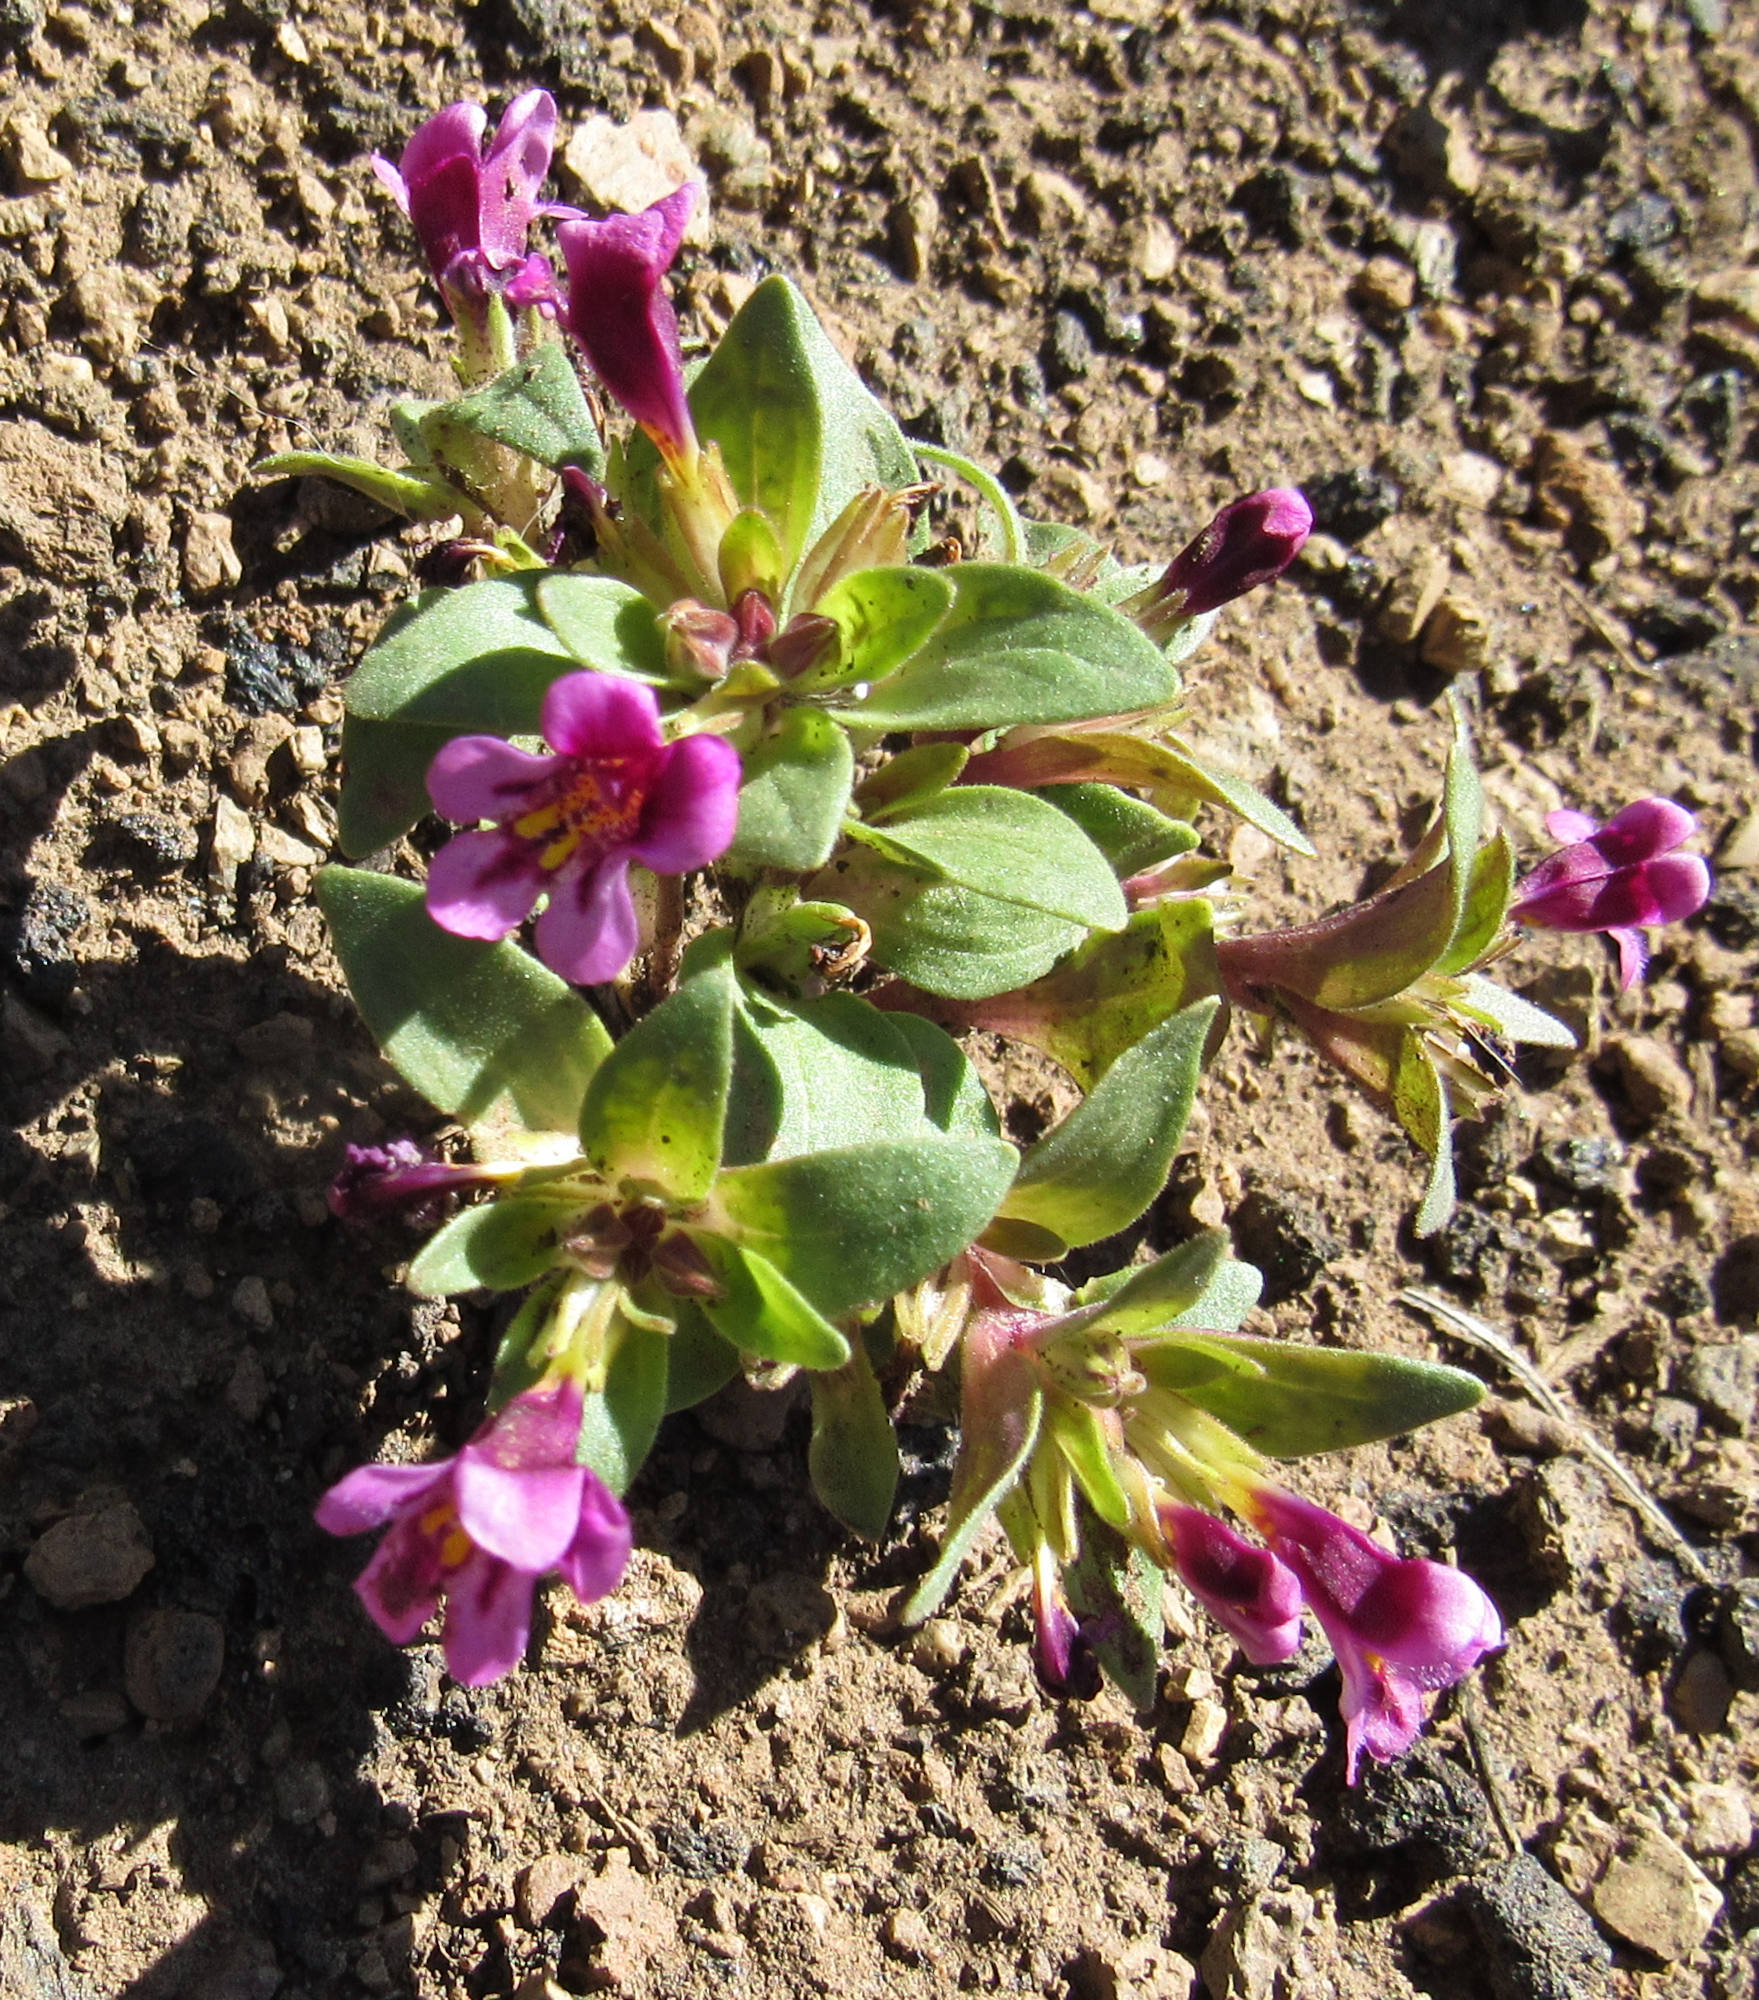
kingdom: Plantae
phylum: Tracheophyta
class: Magnoliopsida
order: Lamiales
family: Phrymaceae
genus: Diplacus
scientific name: Diplacus nanus
